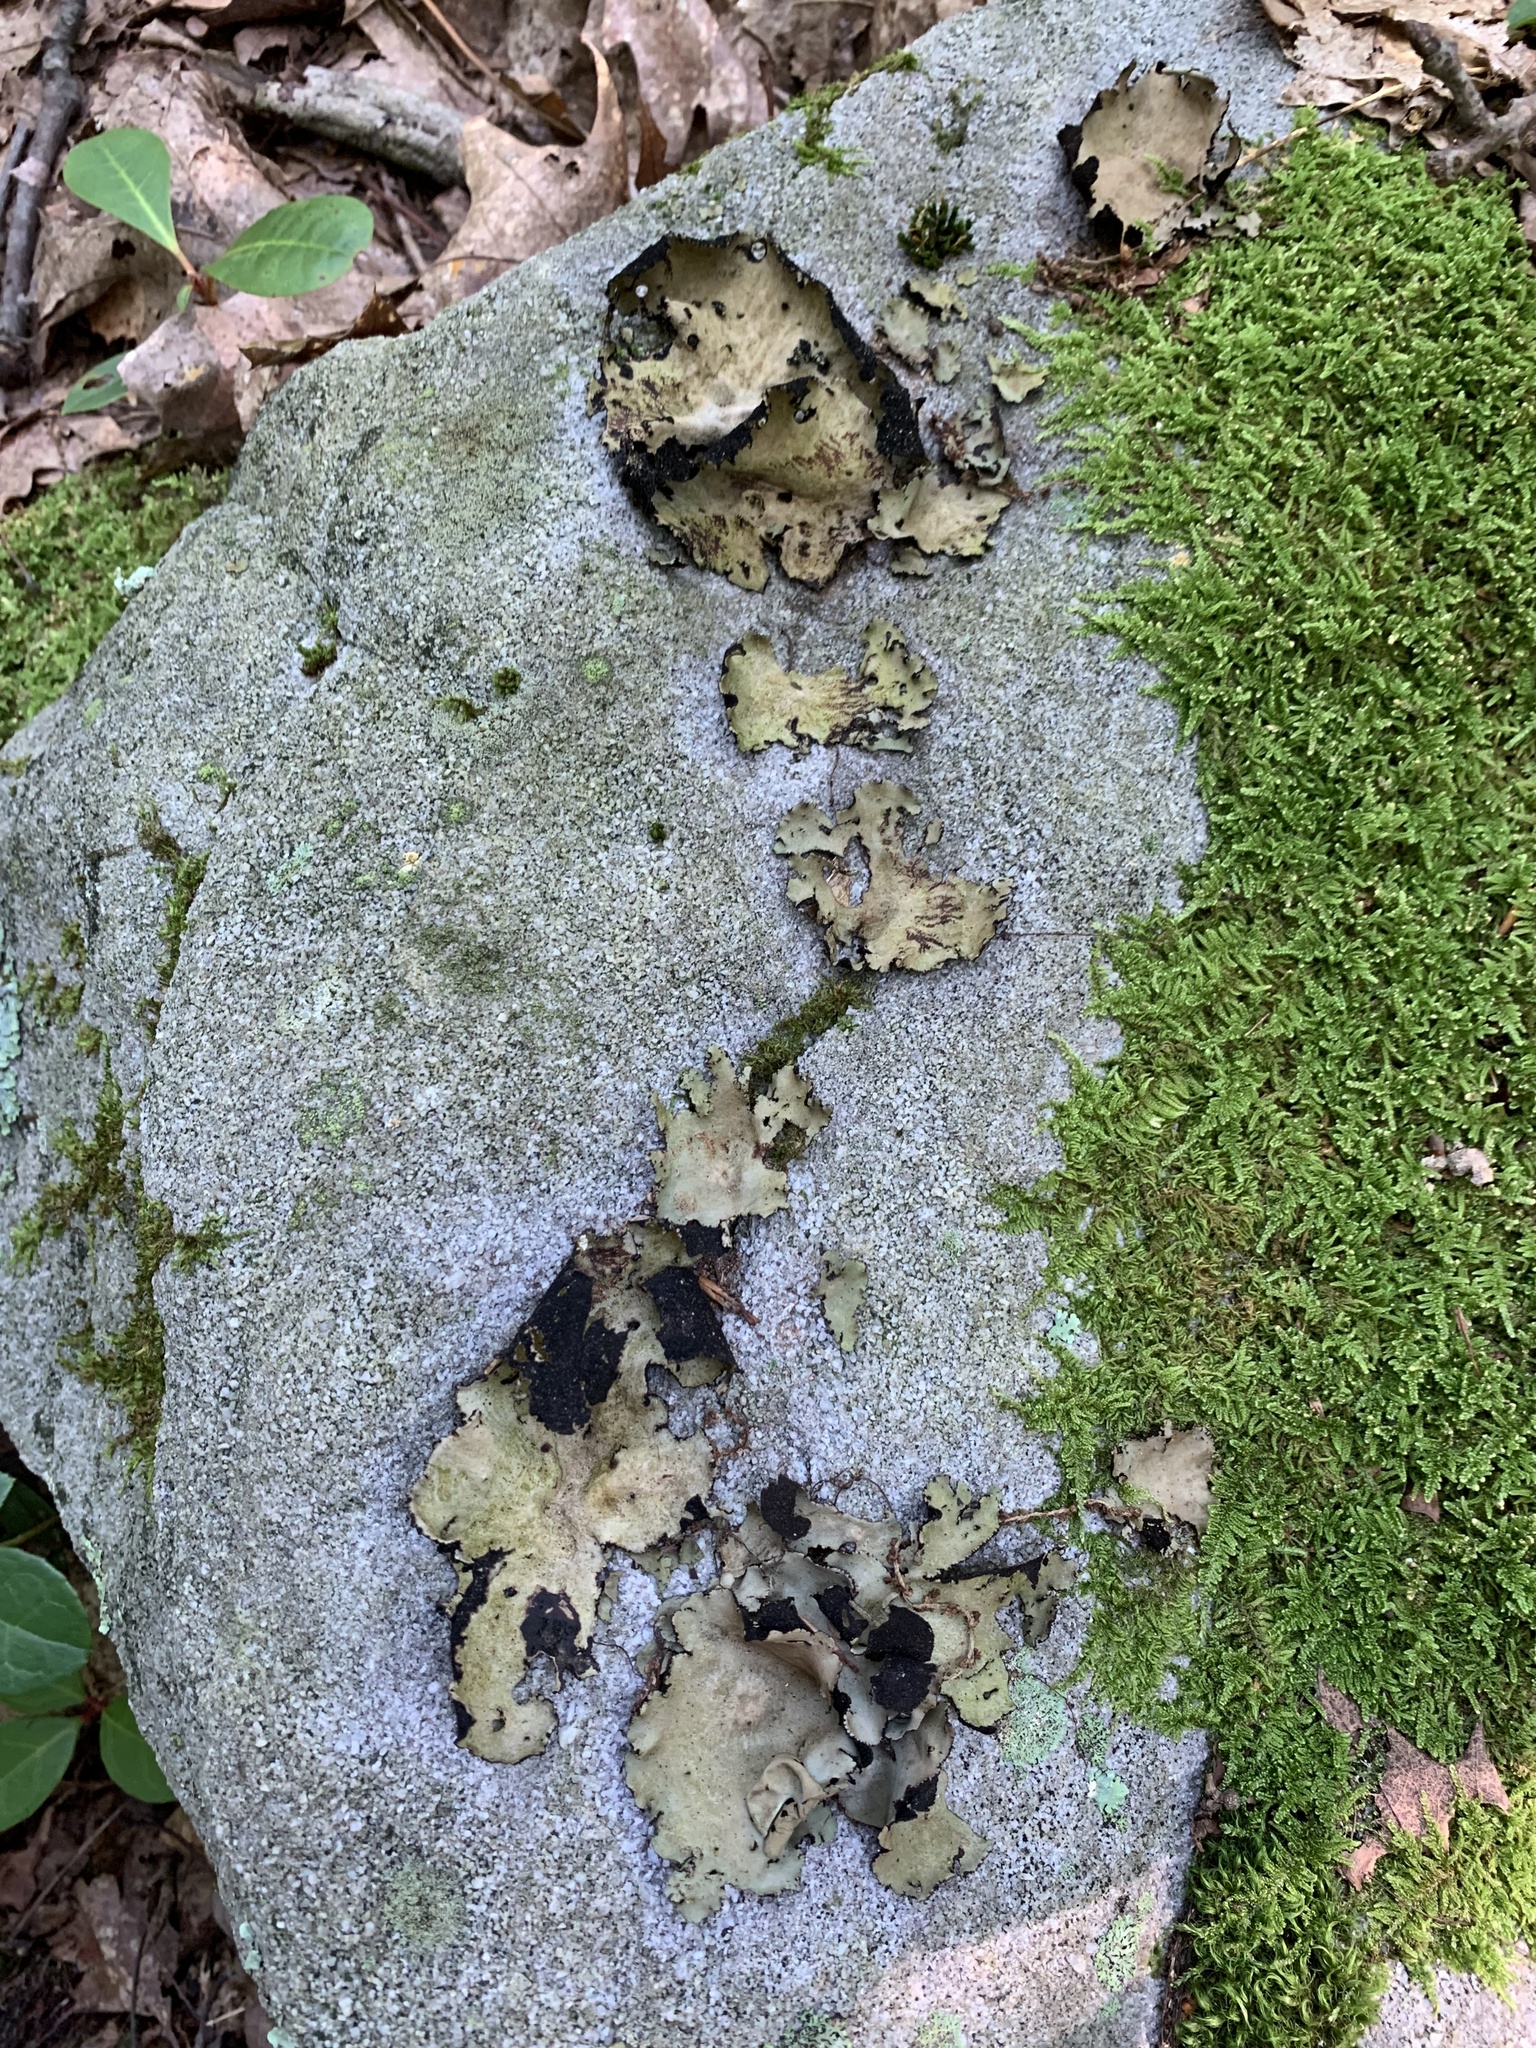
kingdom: Fungi
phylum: Ascomycota
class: Lecanoromycetes
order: Umbilicariales
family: Umbilicariaceae
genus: Umbilicaria
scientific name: Umbilicaria mammulata
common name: Smooth rock tripe
